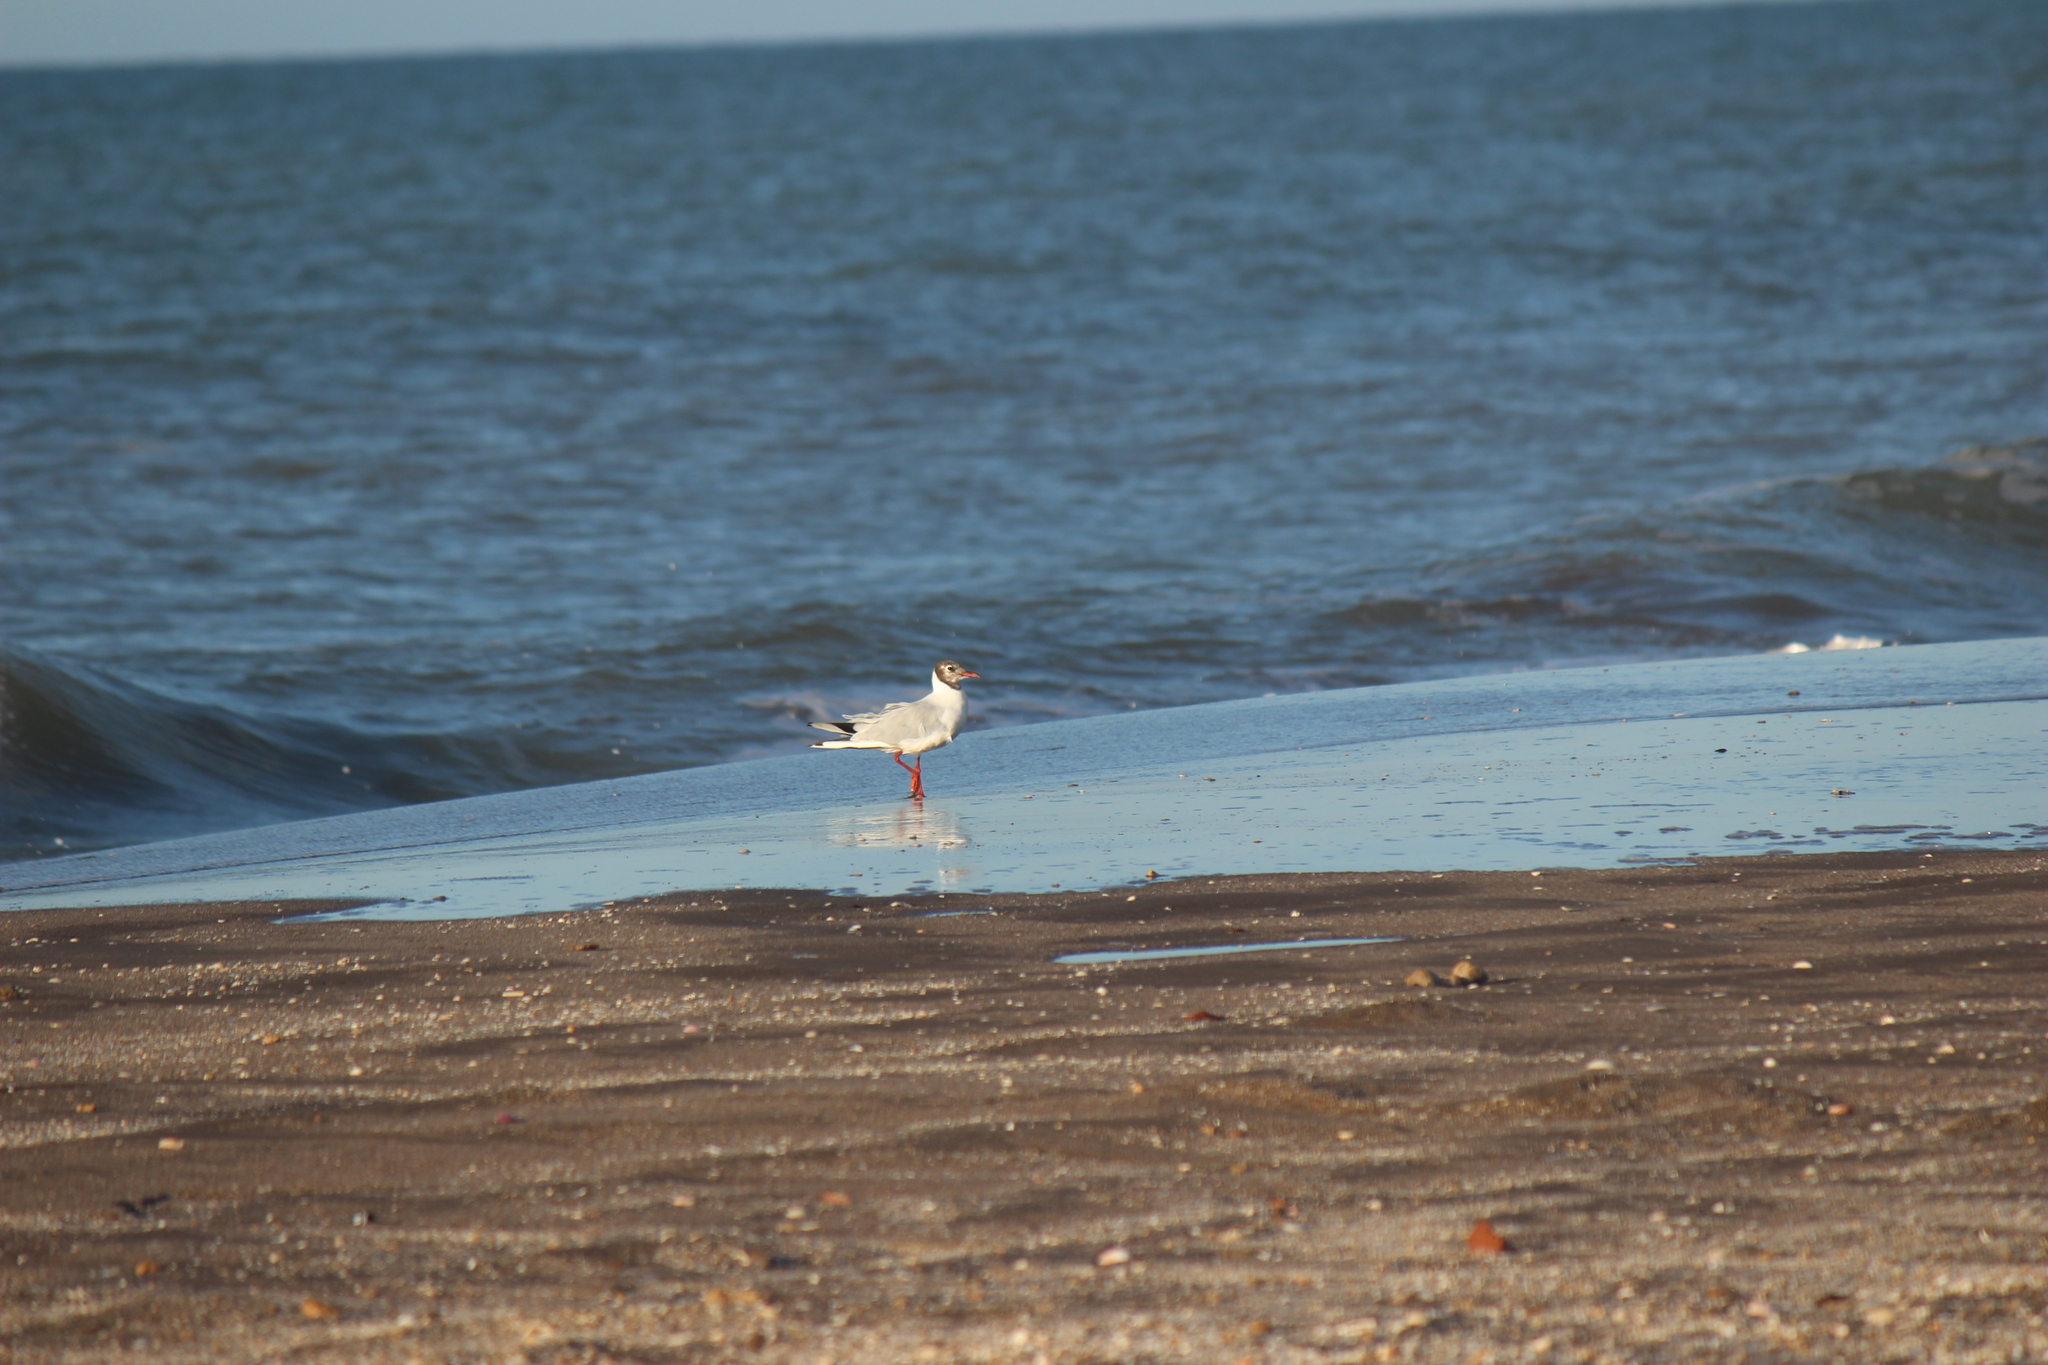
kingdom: Animalia
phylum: Chordata
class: Aves
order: Charadriiformes
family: Laridae
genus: Chroicocephalus
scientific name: Chroicocephalus maculipennis
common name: Brown-hooded gull
